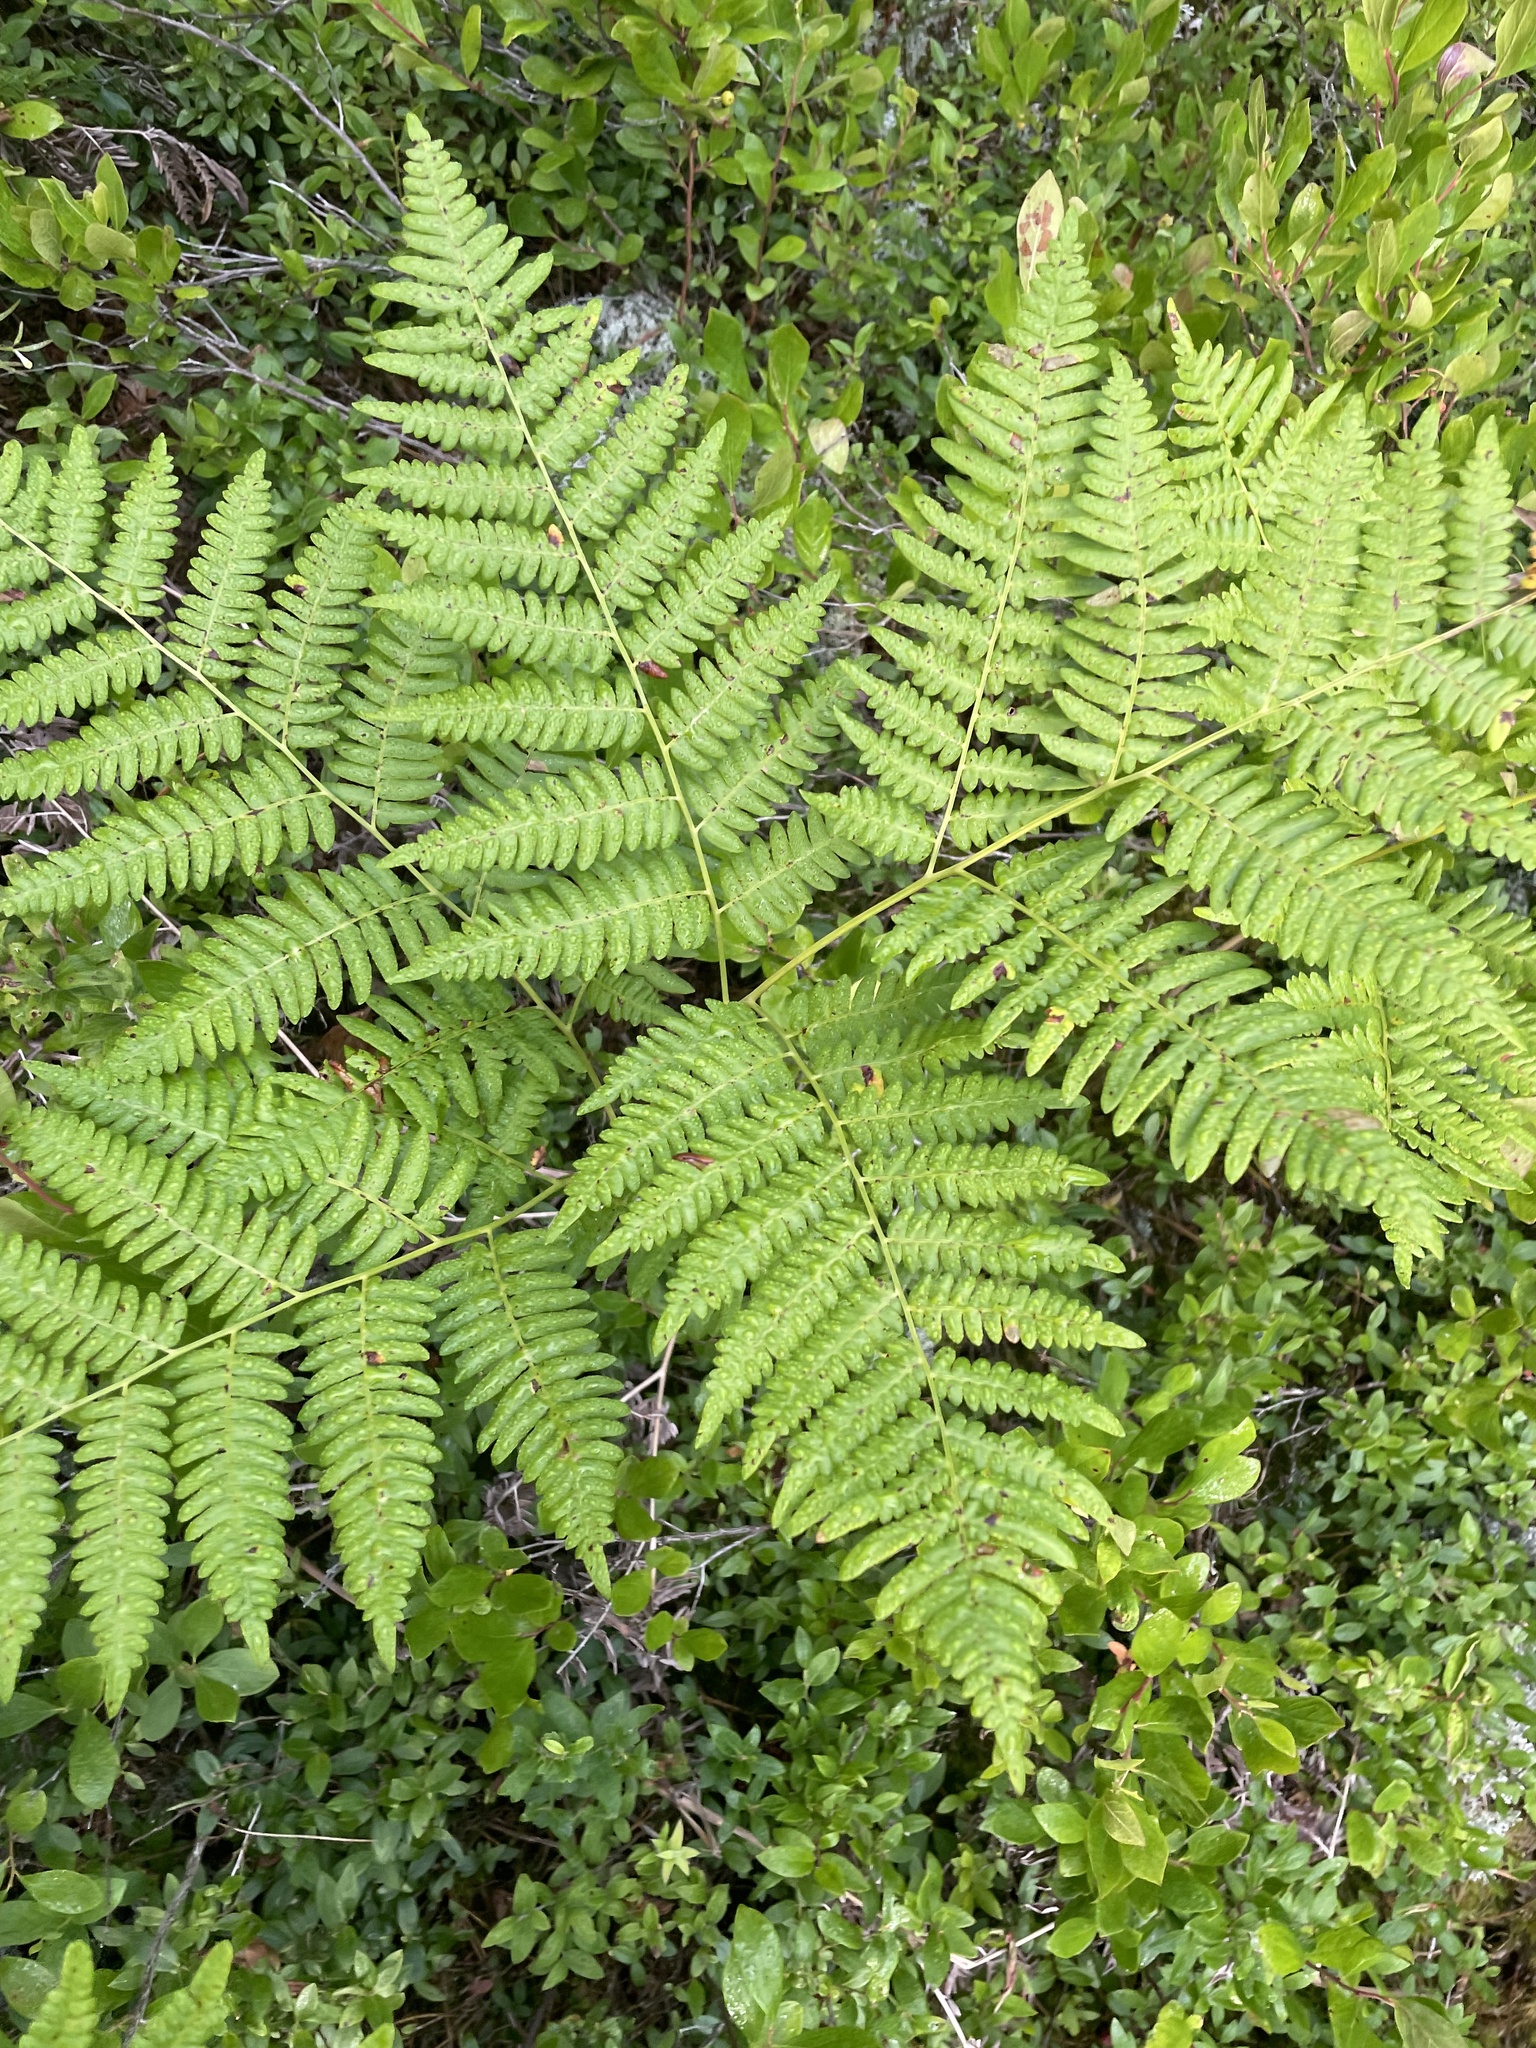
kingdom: Plantae
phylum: Tracheophyta
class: Polypodiopsida
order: Polypodiales
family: Dennstaedtiaceae
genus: Pteridium
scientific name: Pteridium aquilinum
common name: Bracken
